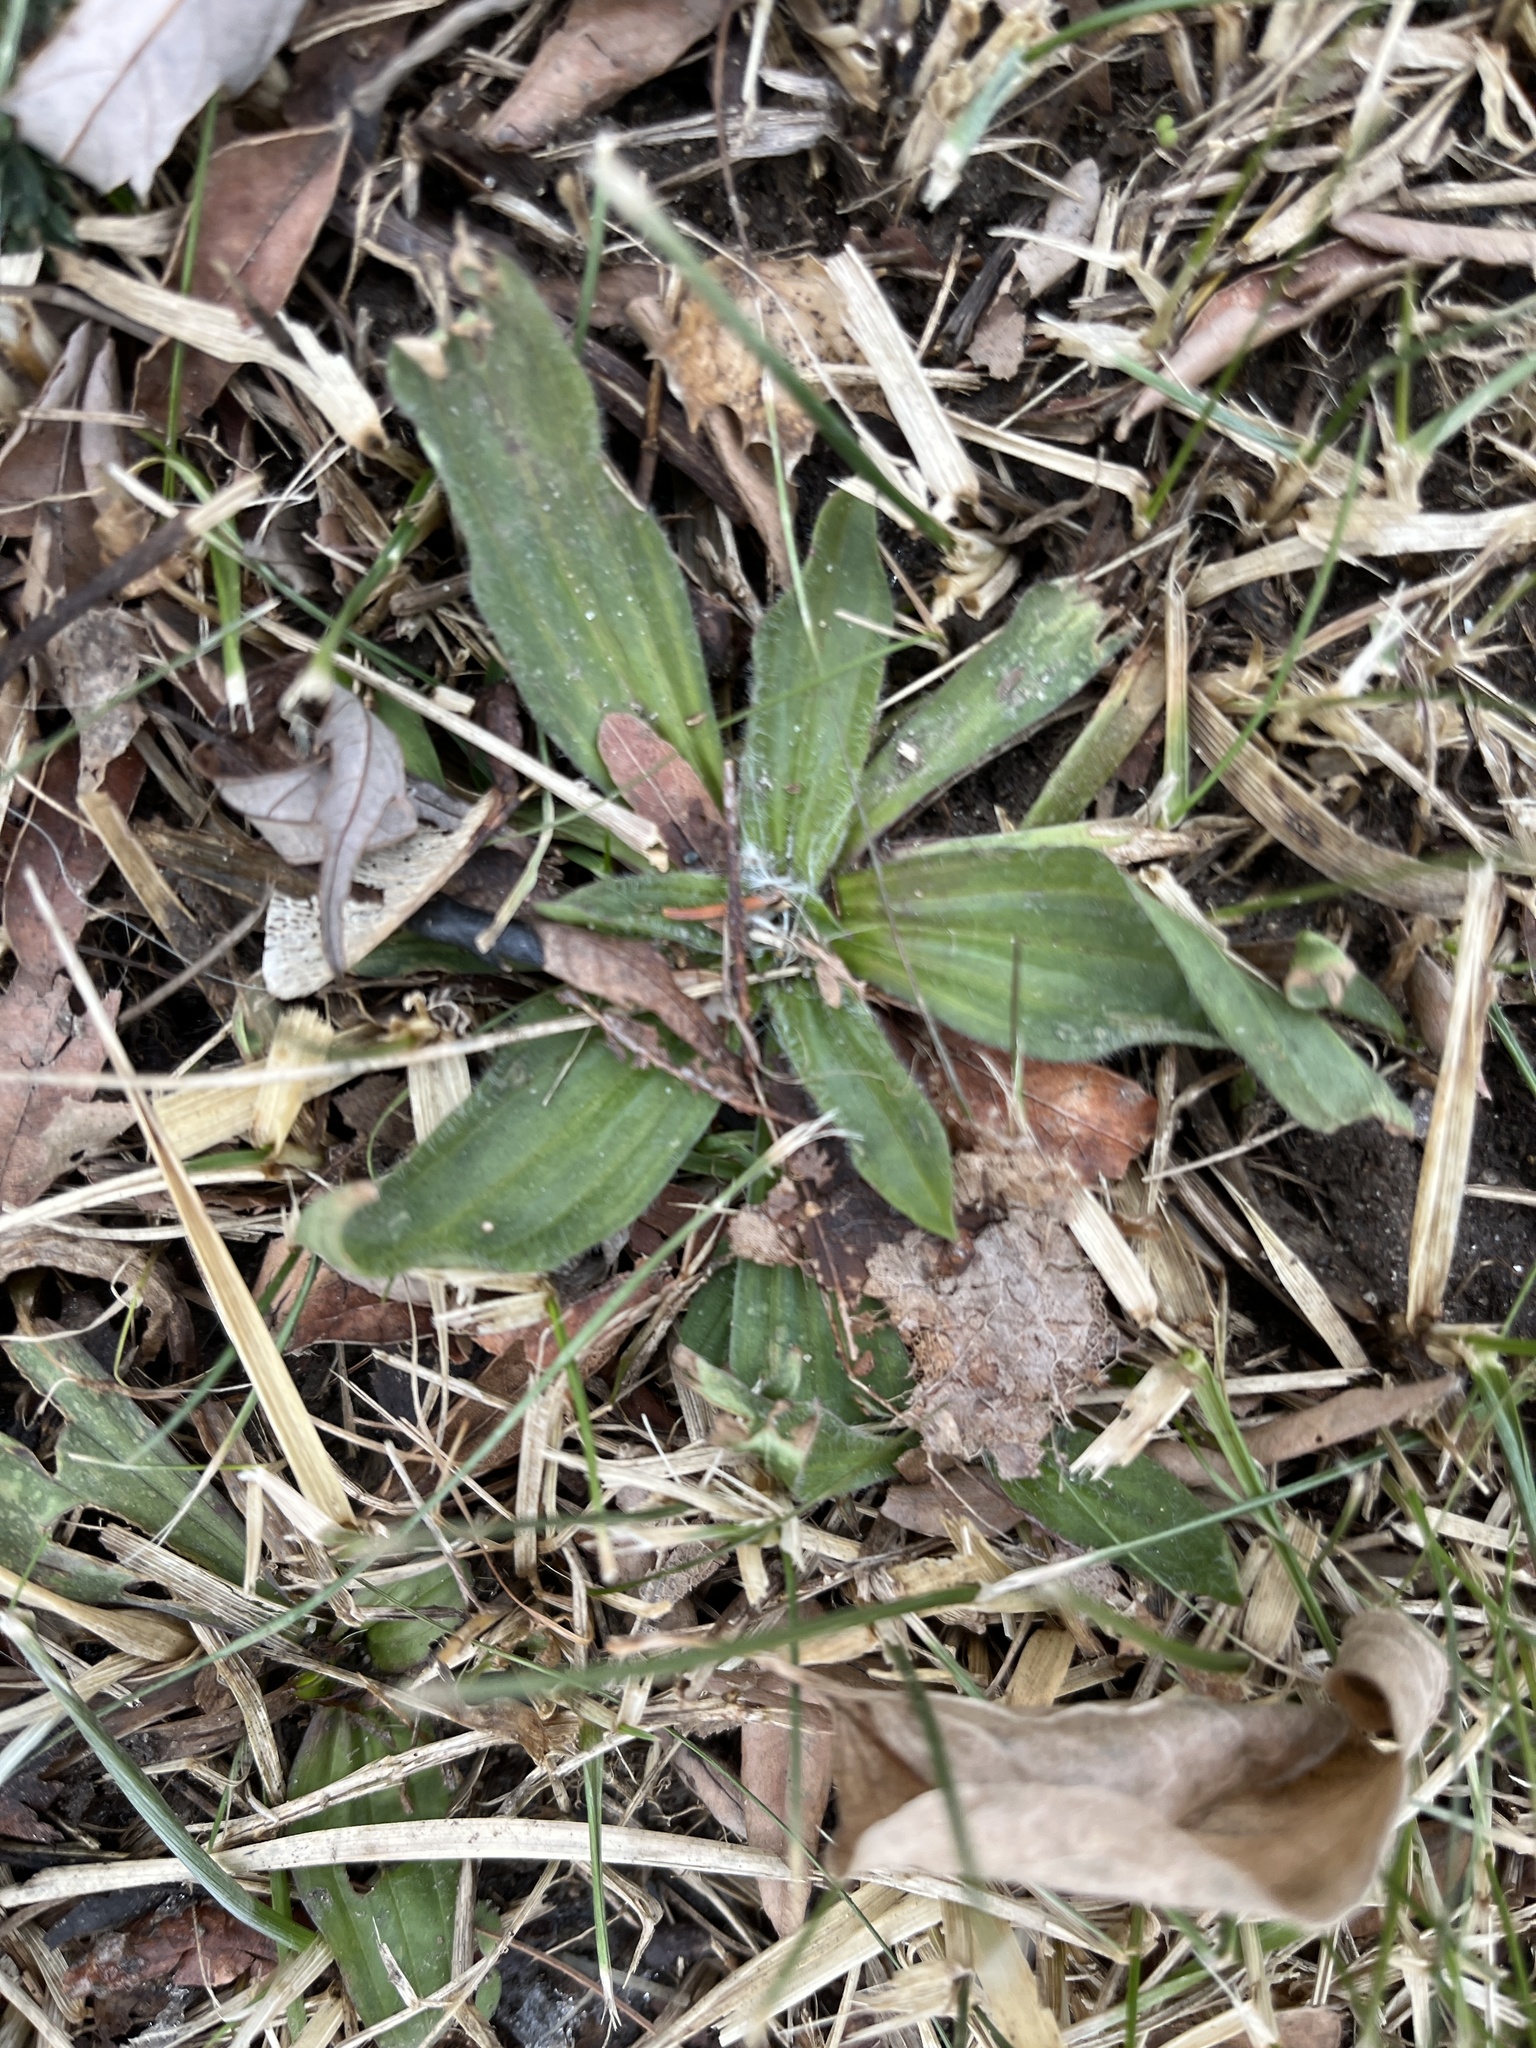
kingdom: Plantae
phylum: Tracheophyta
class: Magnoliopsida
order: Lamiales
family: Plantaginaceae
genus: Plantago
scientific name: Plantago lanceolata
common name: Ribwort plantain
